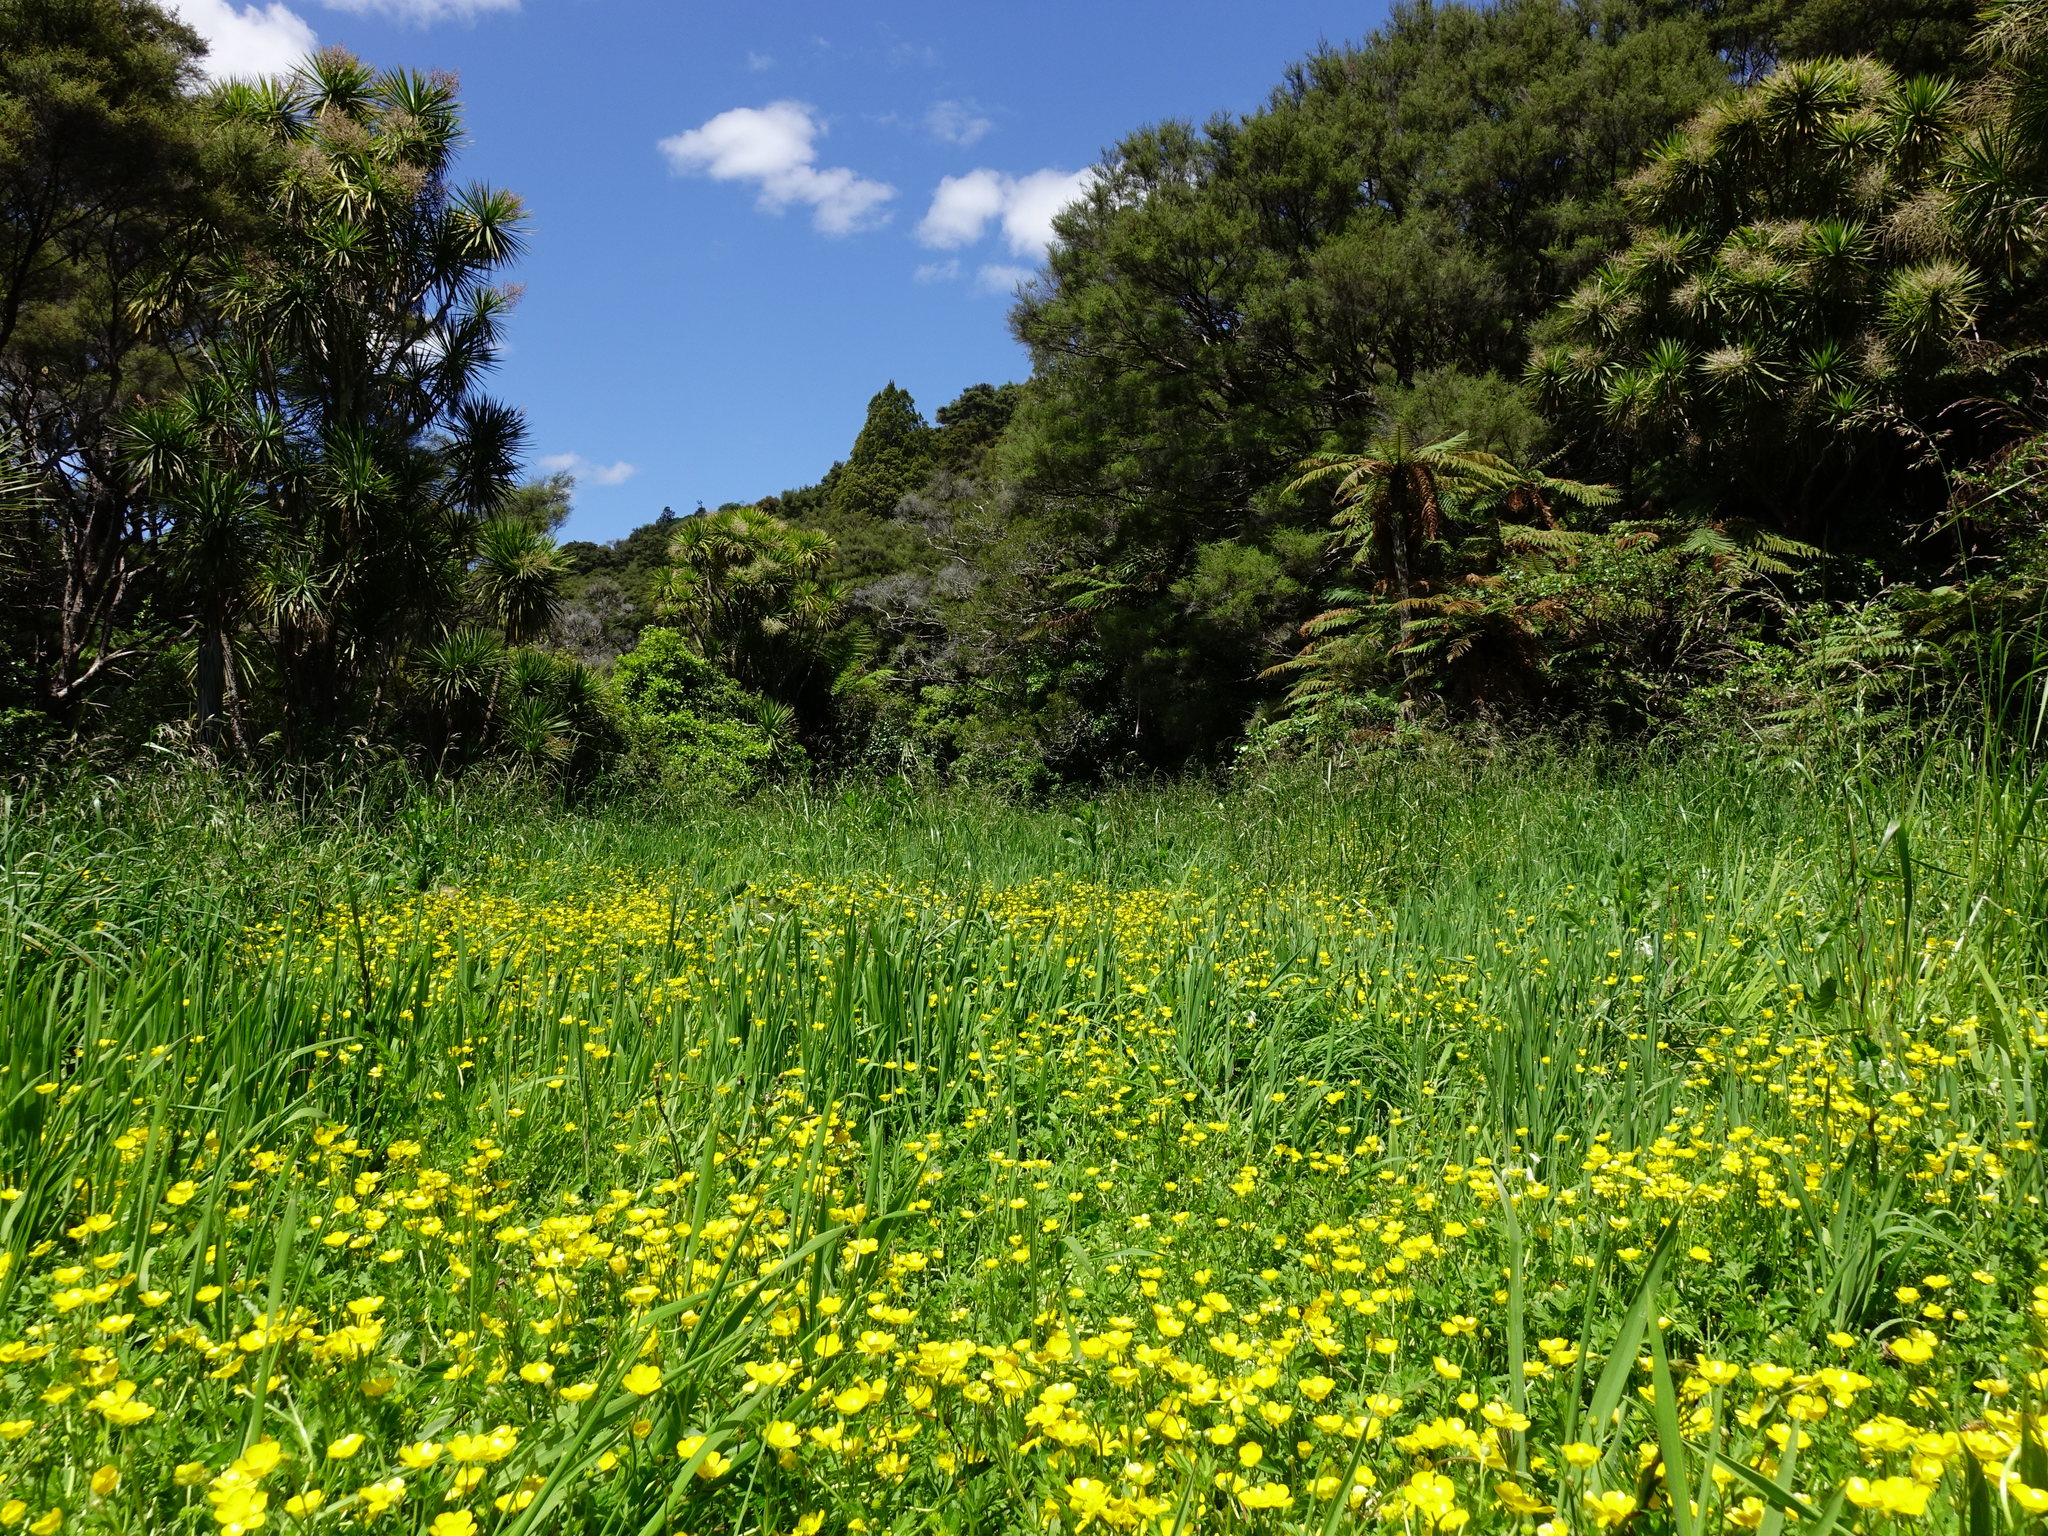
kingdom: Plantae
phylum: Tracheophyta
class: Magnoliopsida
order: Ranunculales
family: Ranunculaceae
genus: Ranunculus
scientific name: Ranunculus repens
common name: Creeping buttercup
